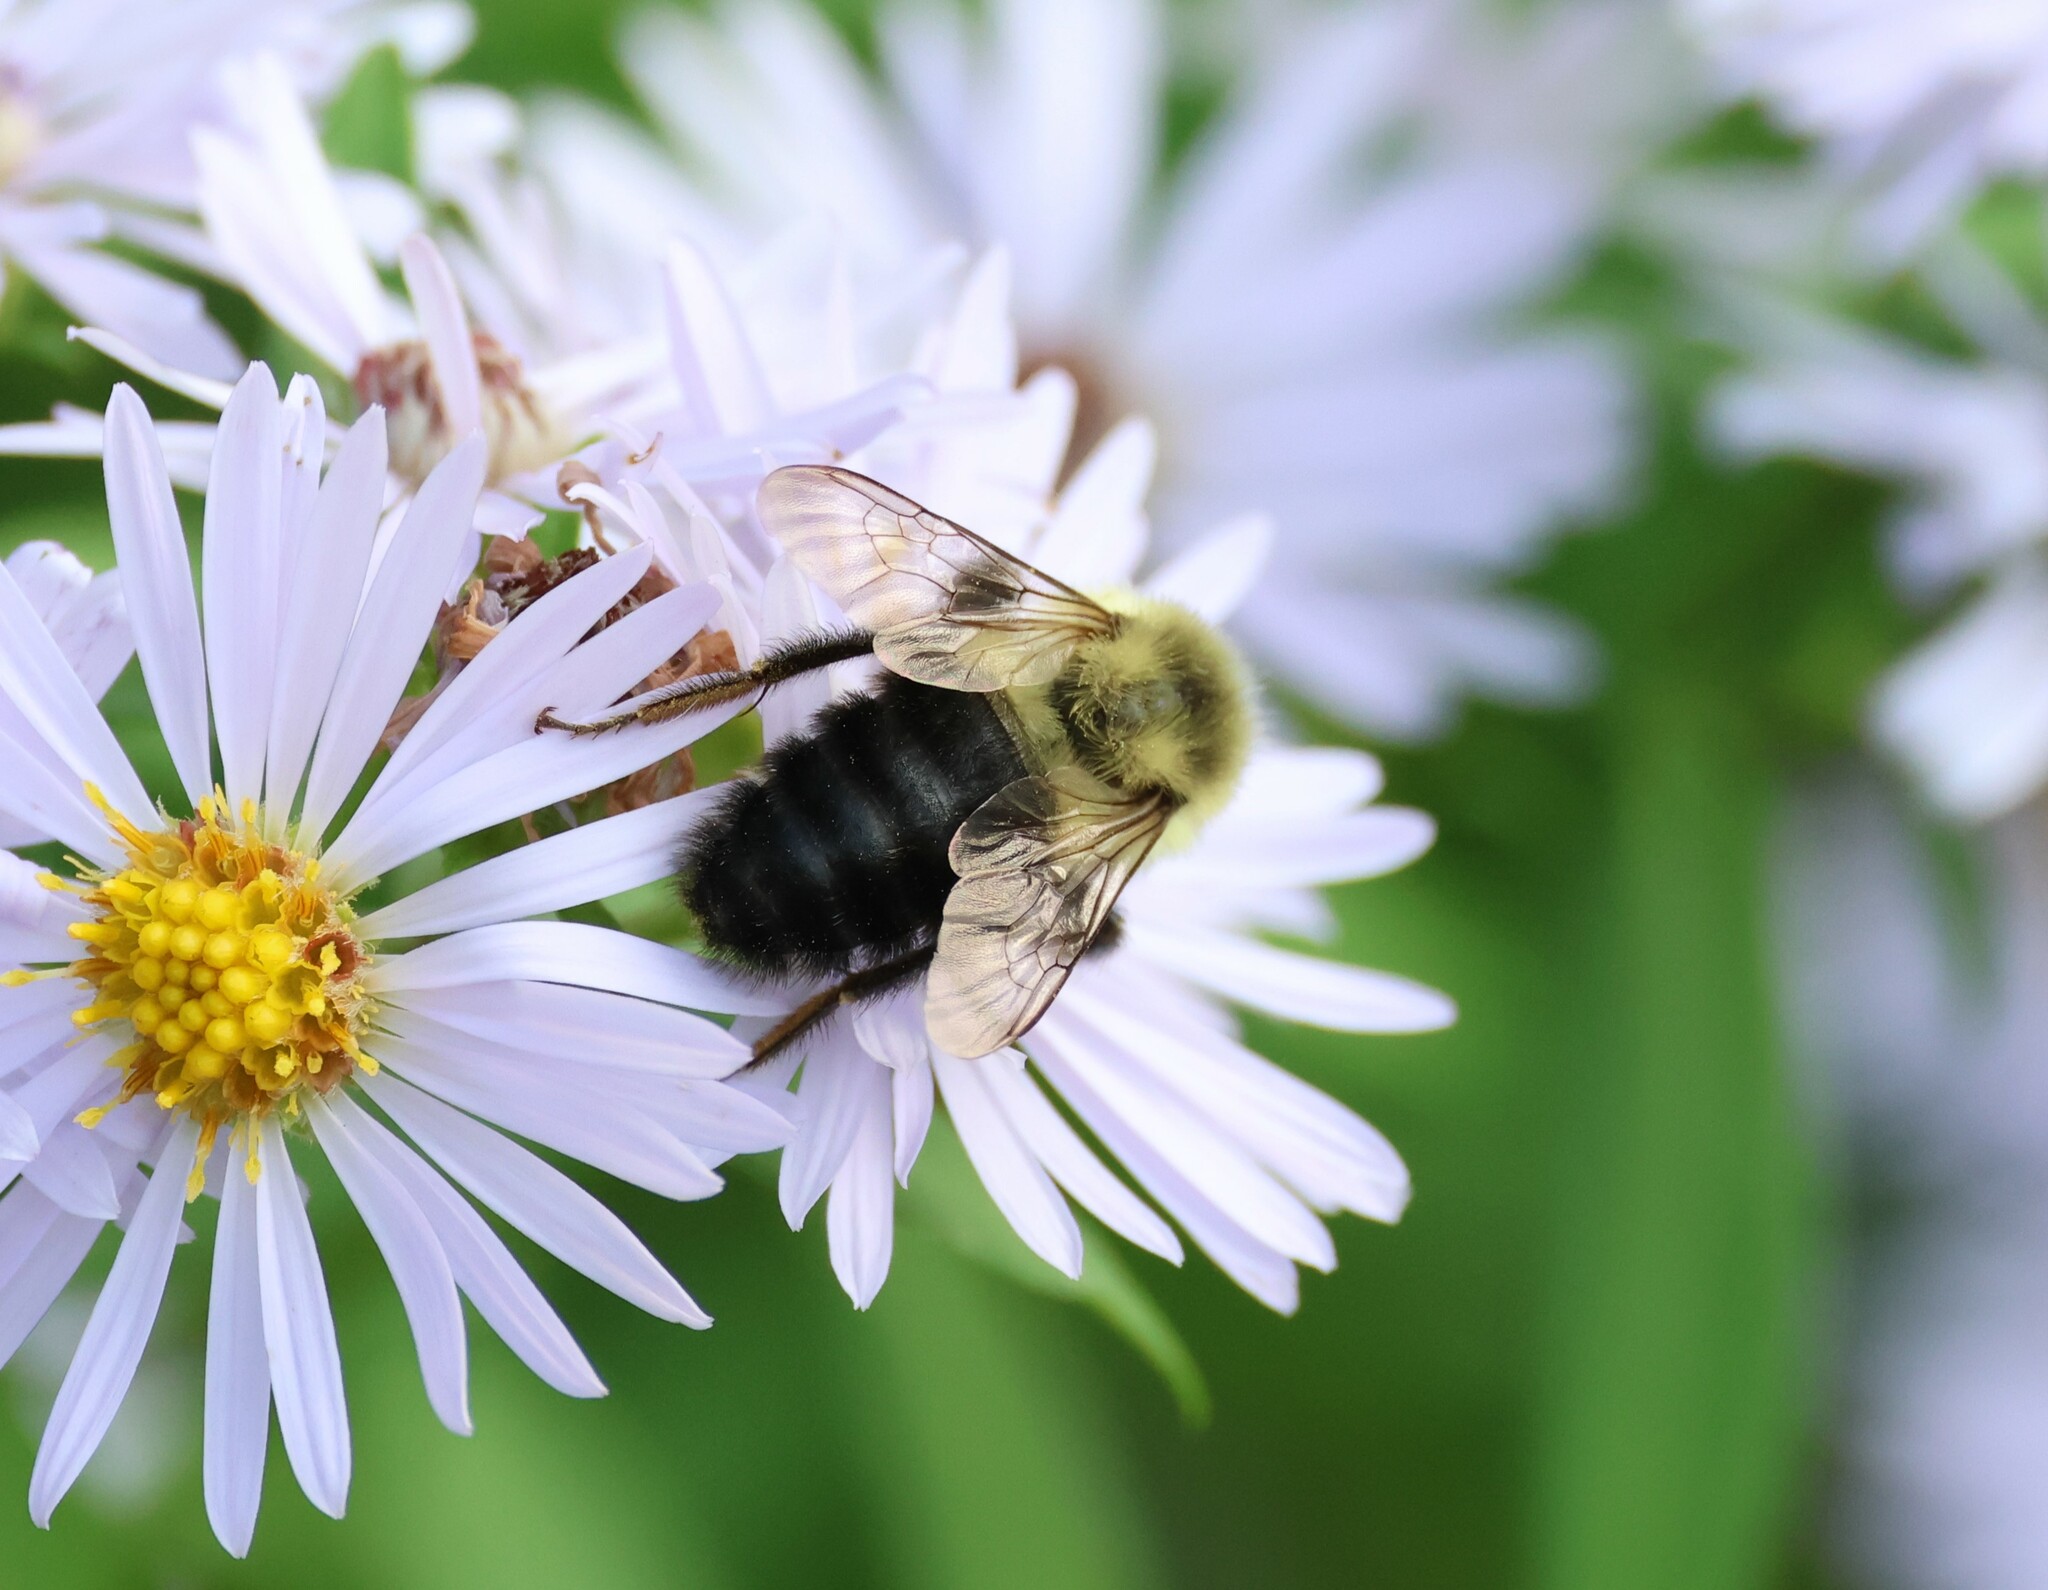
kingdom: Animalia
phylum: Arthropoda
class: Insecta
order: Hymenoptera
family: Apidae
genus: Bombus
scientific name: Bombus impatiens
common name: Common eastern bumble bee
